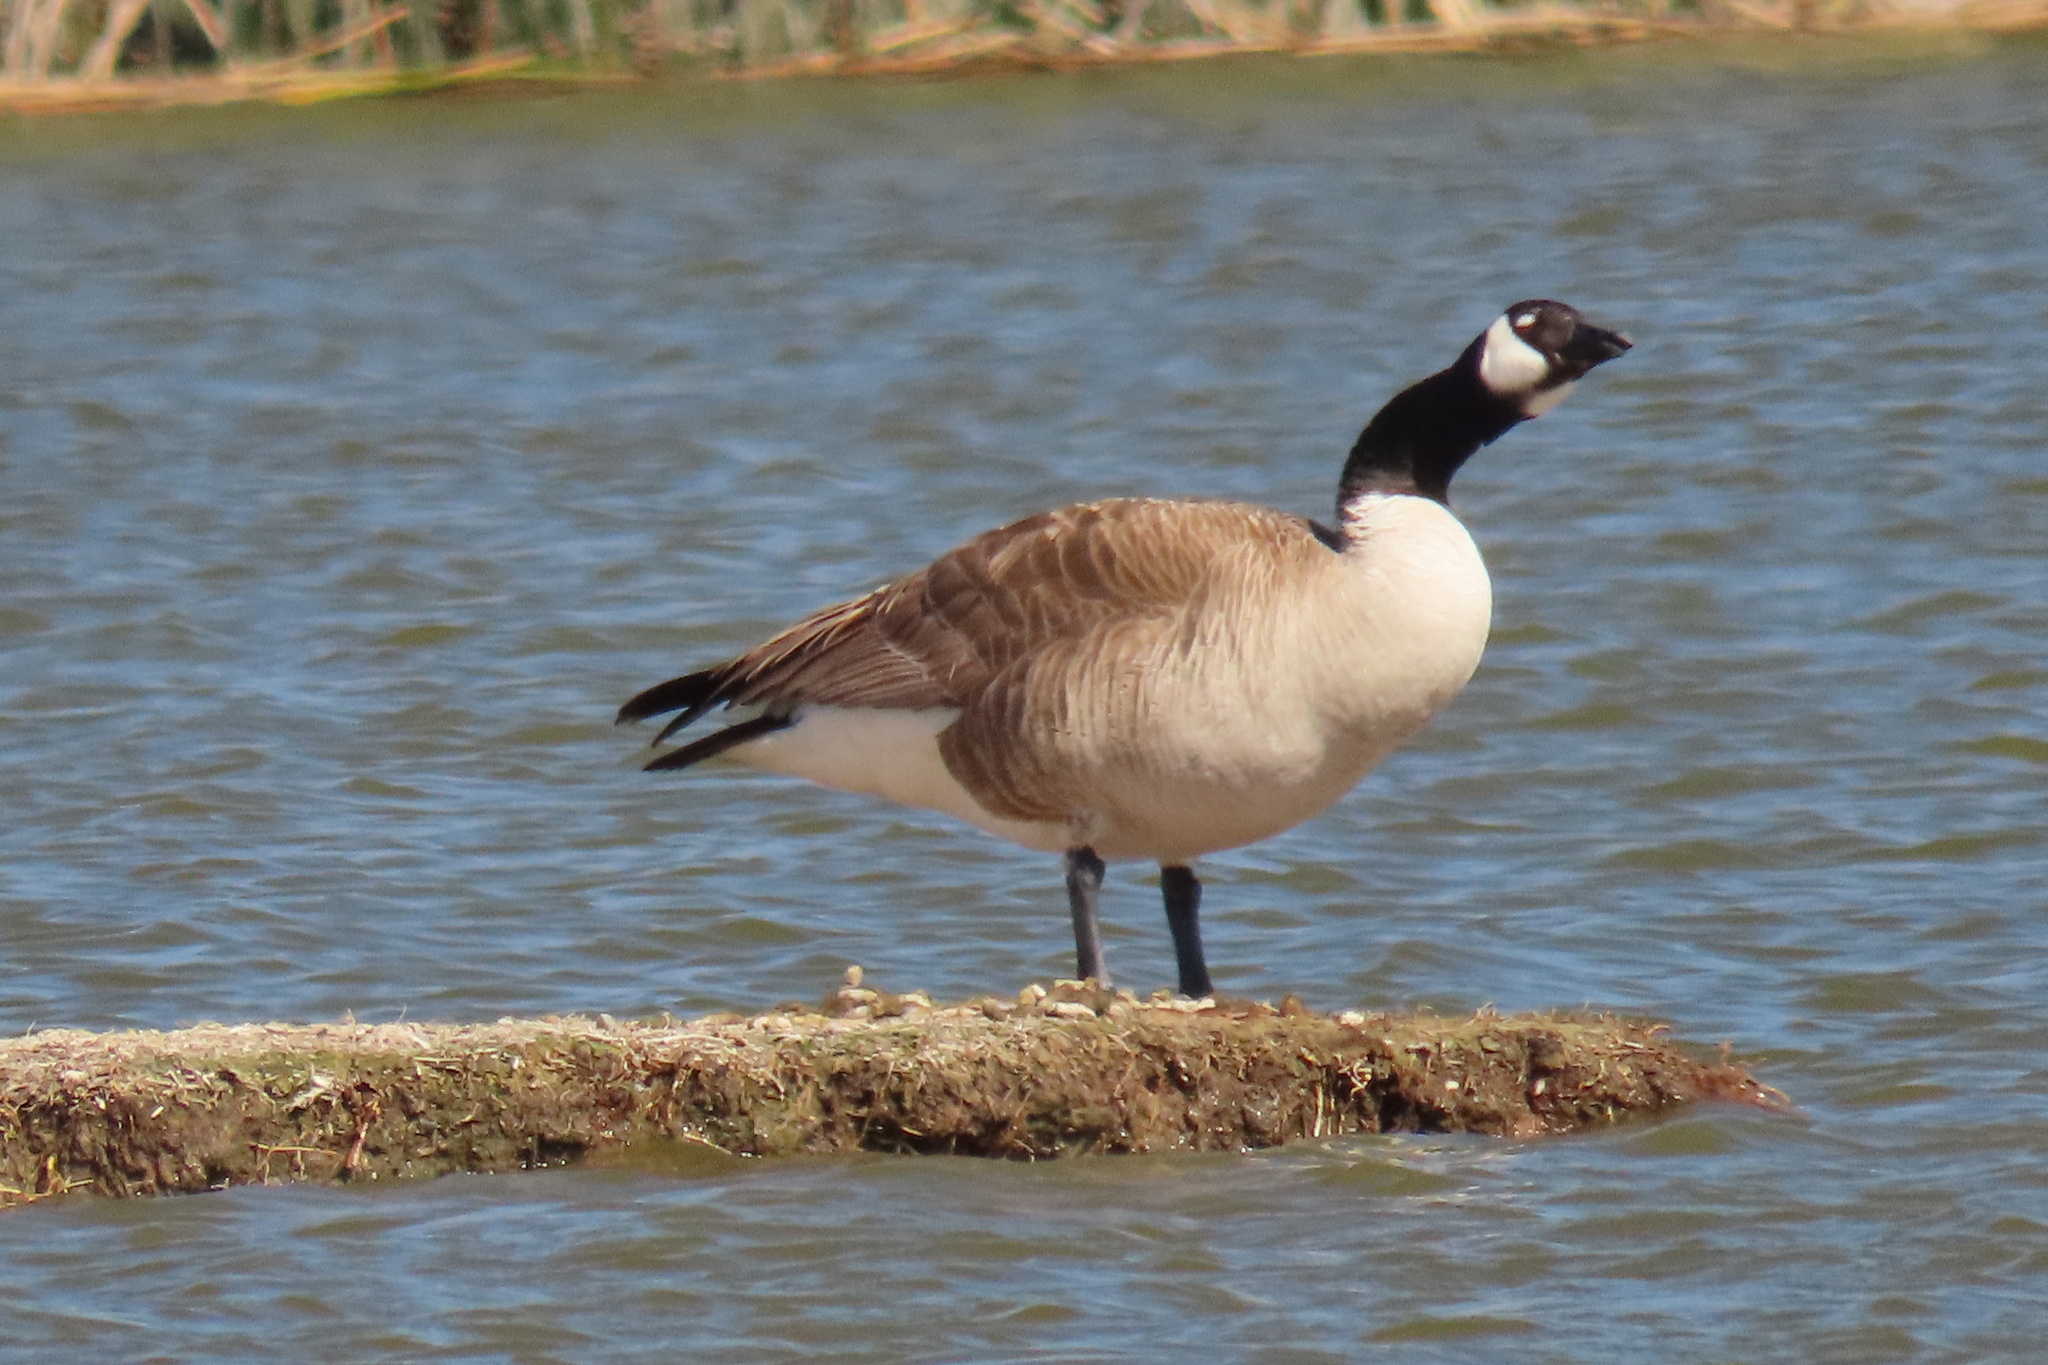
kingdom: Animalia
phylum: Chordata
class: Aves
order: Anseriformes
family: Anatidae
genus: Branta
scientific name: Branta canadensis
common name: Canada goose
